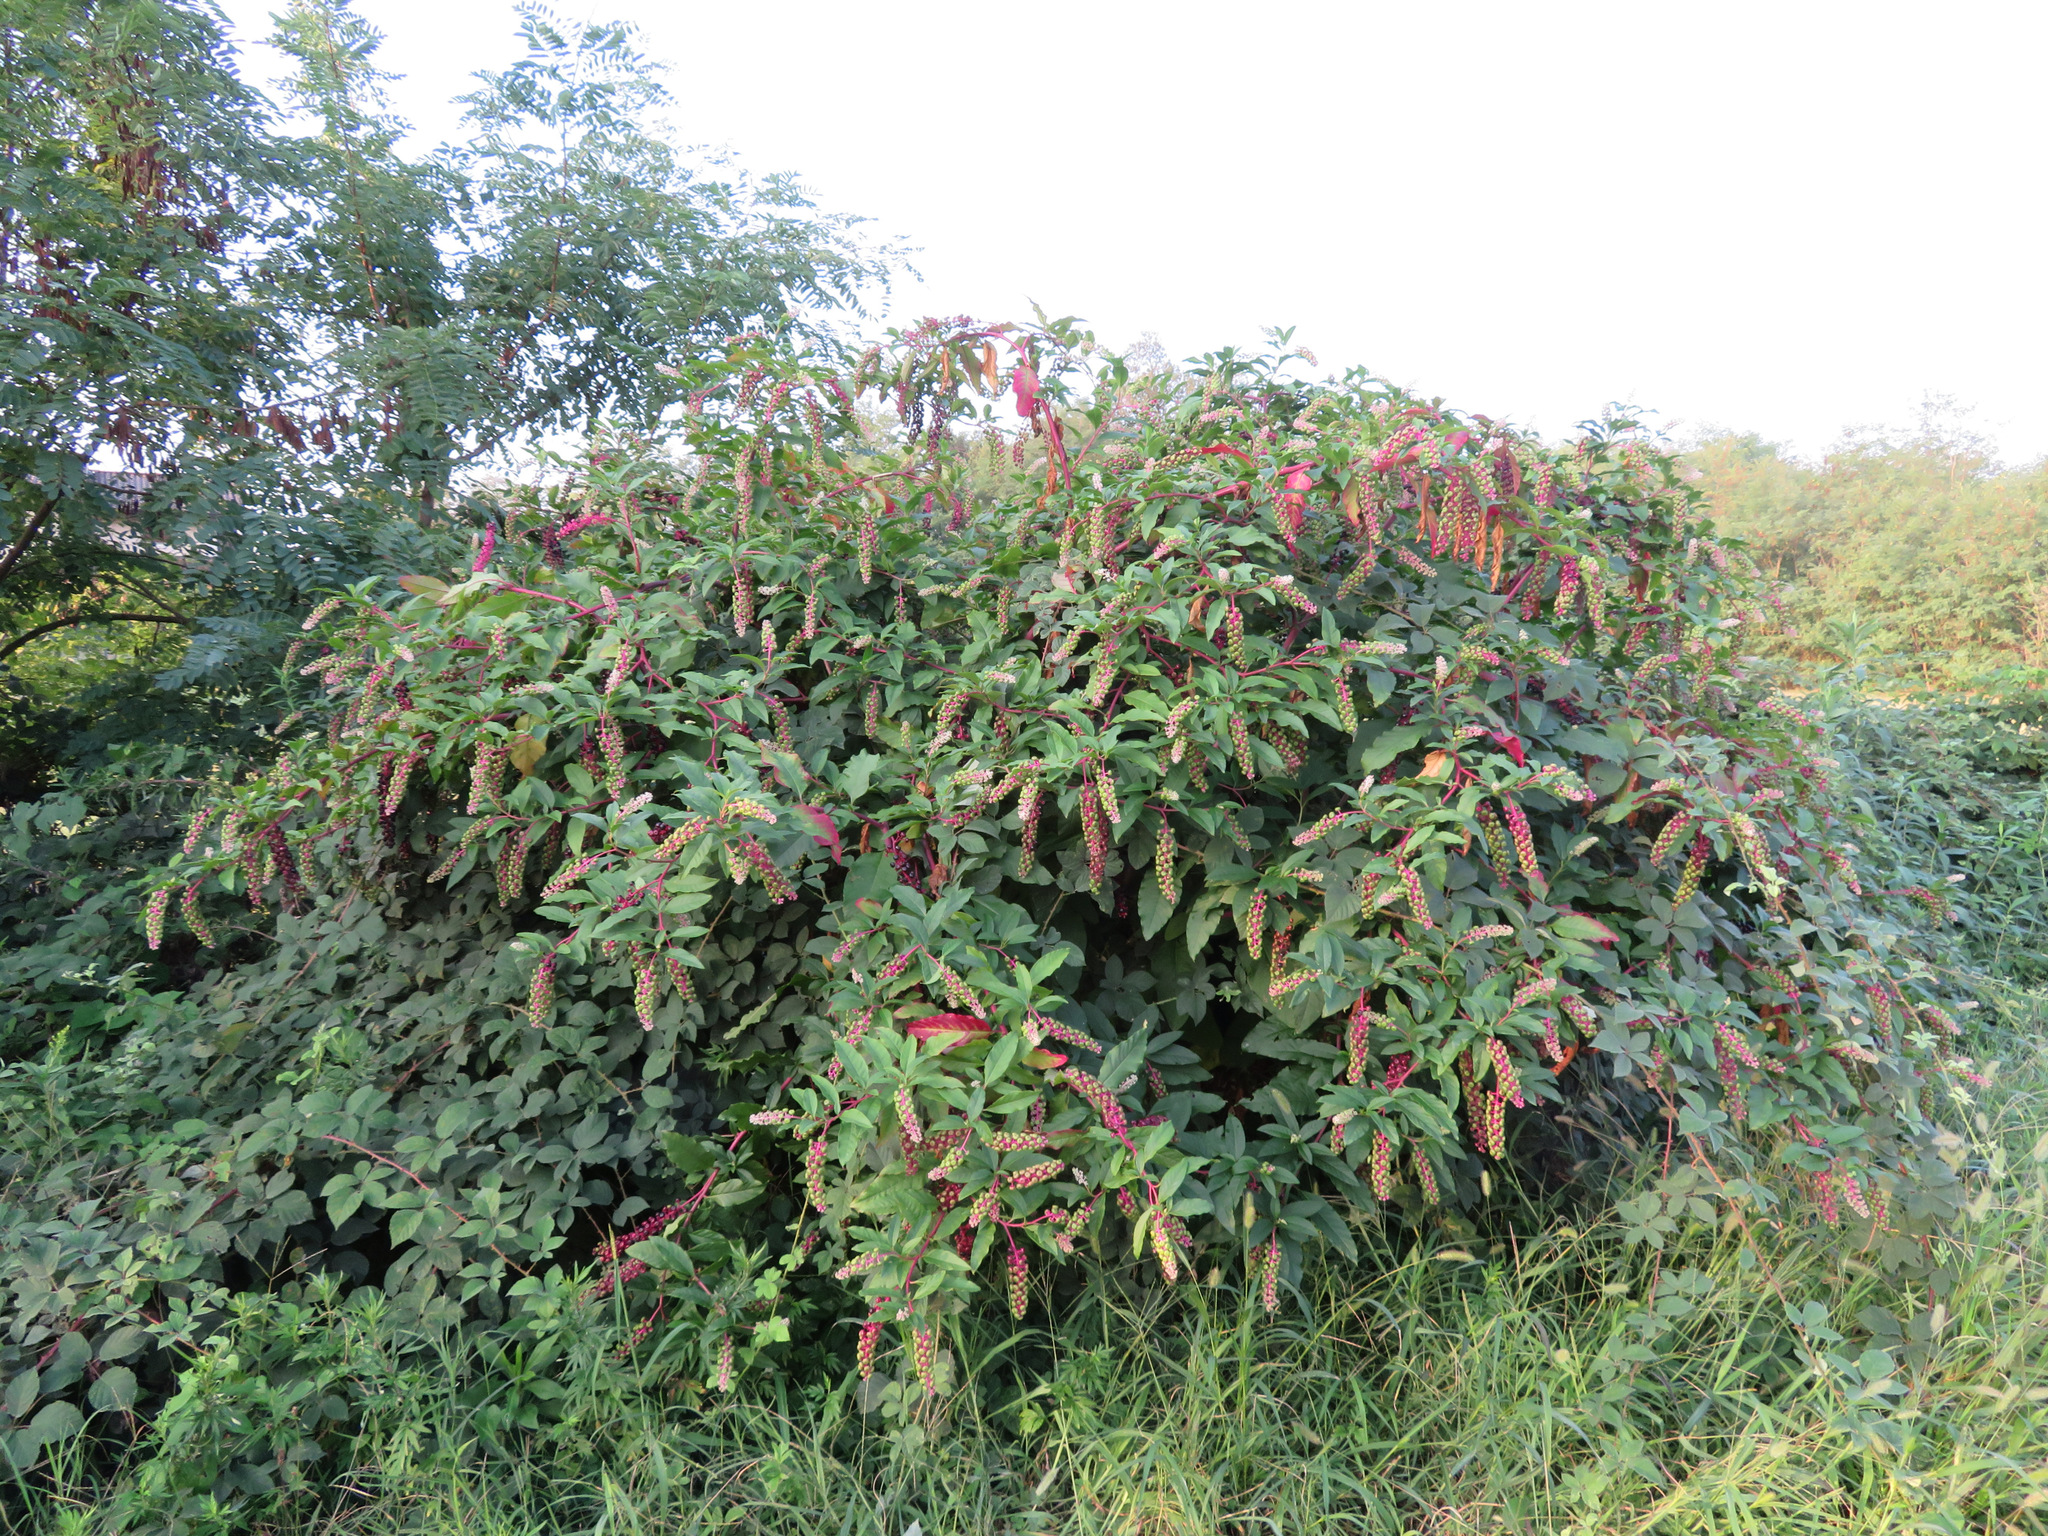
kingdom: Plantae
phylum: Tracheophyta
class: Magnoliopsida
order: Caryophyllales
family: Phytolaccaceae
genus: Phytolacca
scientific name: Phytolacca americana
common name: American pokeweed
